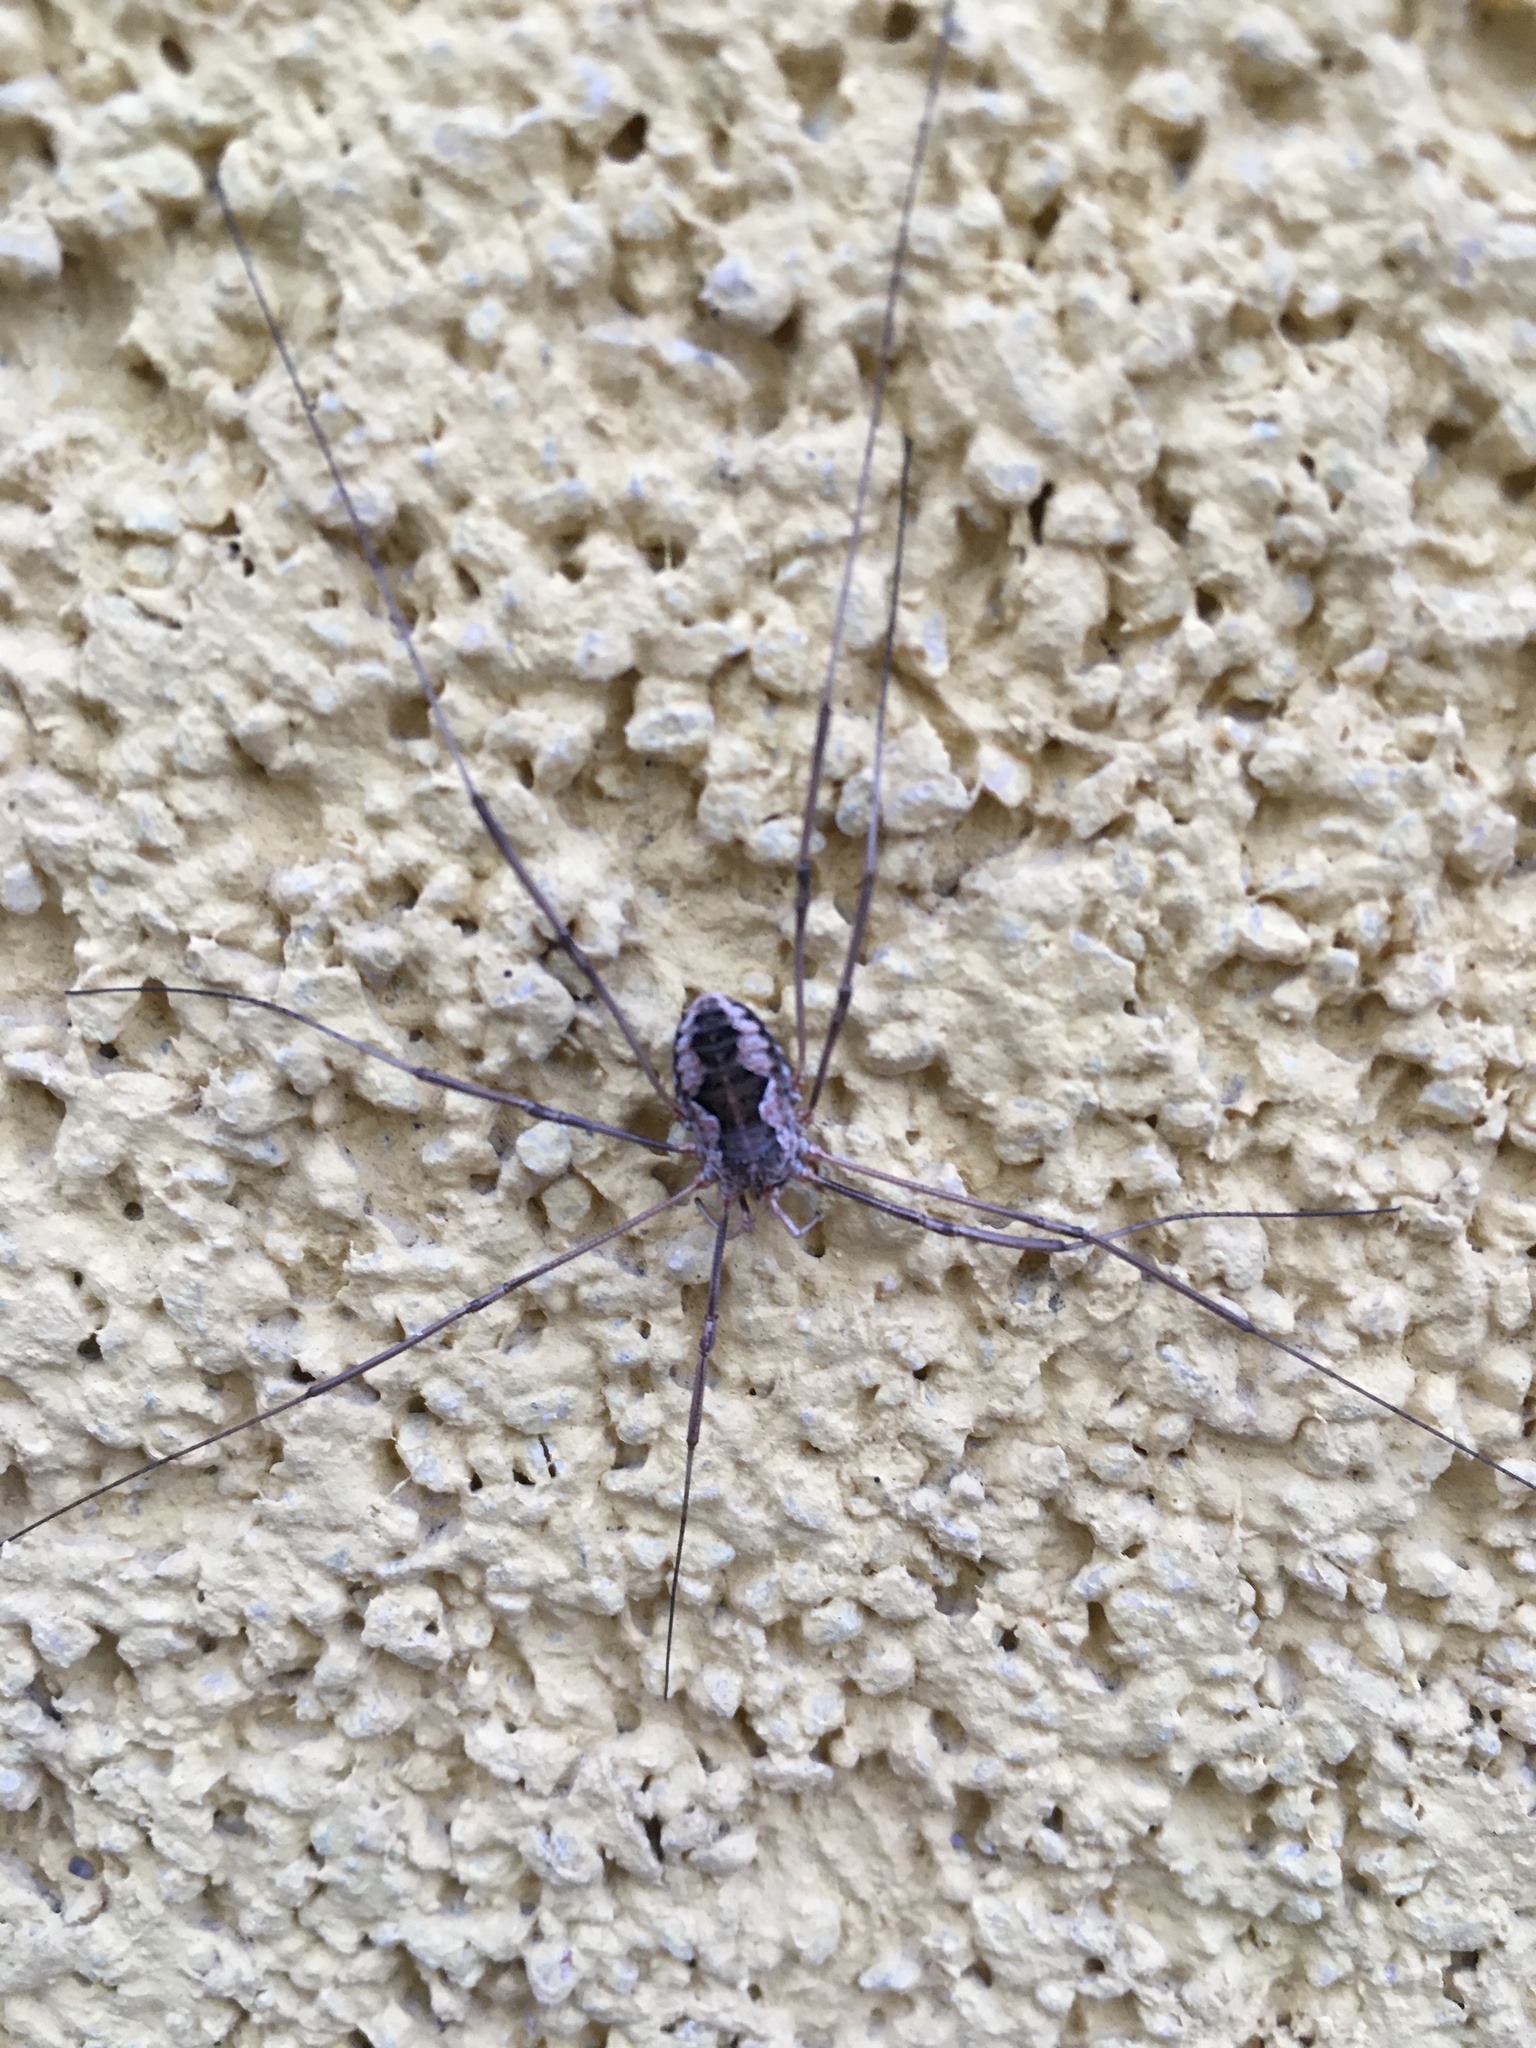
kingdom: Animalia
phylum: Arthropoda
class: Arachnida
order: Opiliones
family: Phalangiidae
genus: Phalangium
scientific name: Phalangium opilio
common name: Daddy longleg
